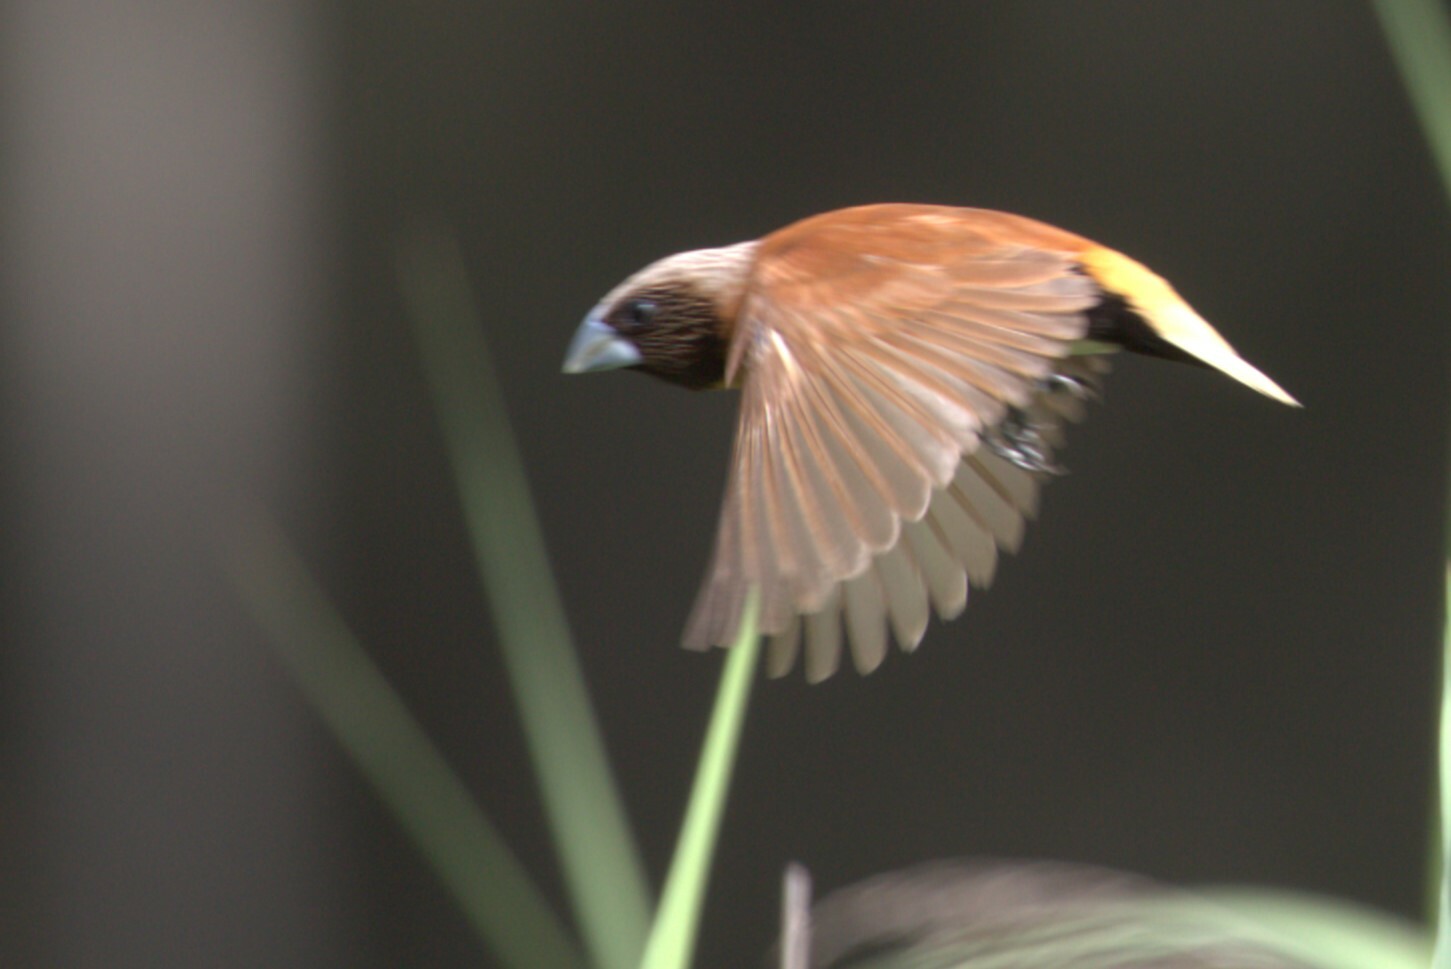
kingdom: Animalia
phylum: Chordata
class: Aves
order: Passeriformes
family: Estrildidae
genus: Lonchura
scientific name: Lonchura castaneothorax
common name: Chestnut-breasted mannikin
